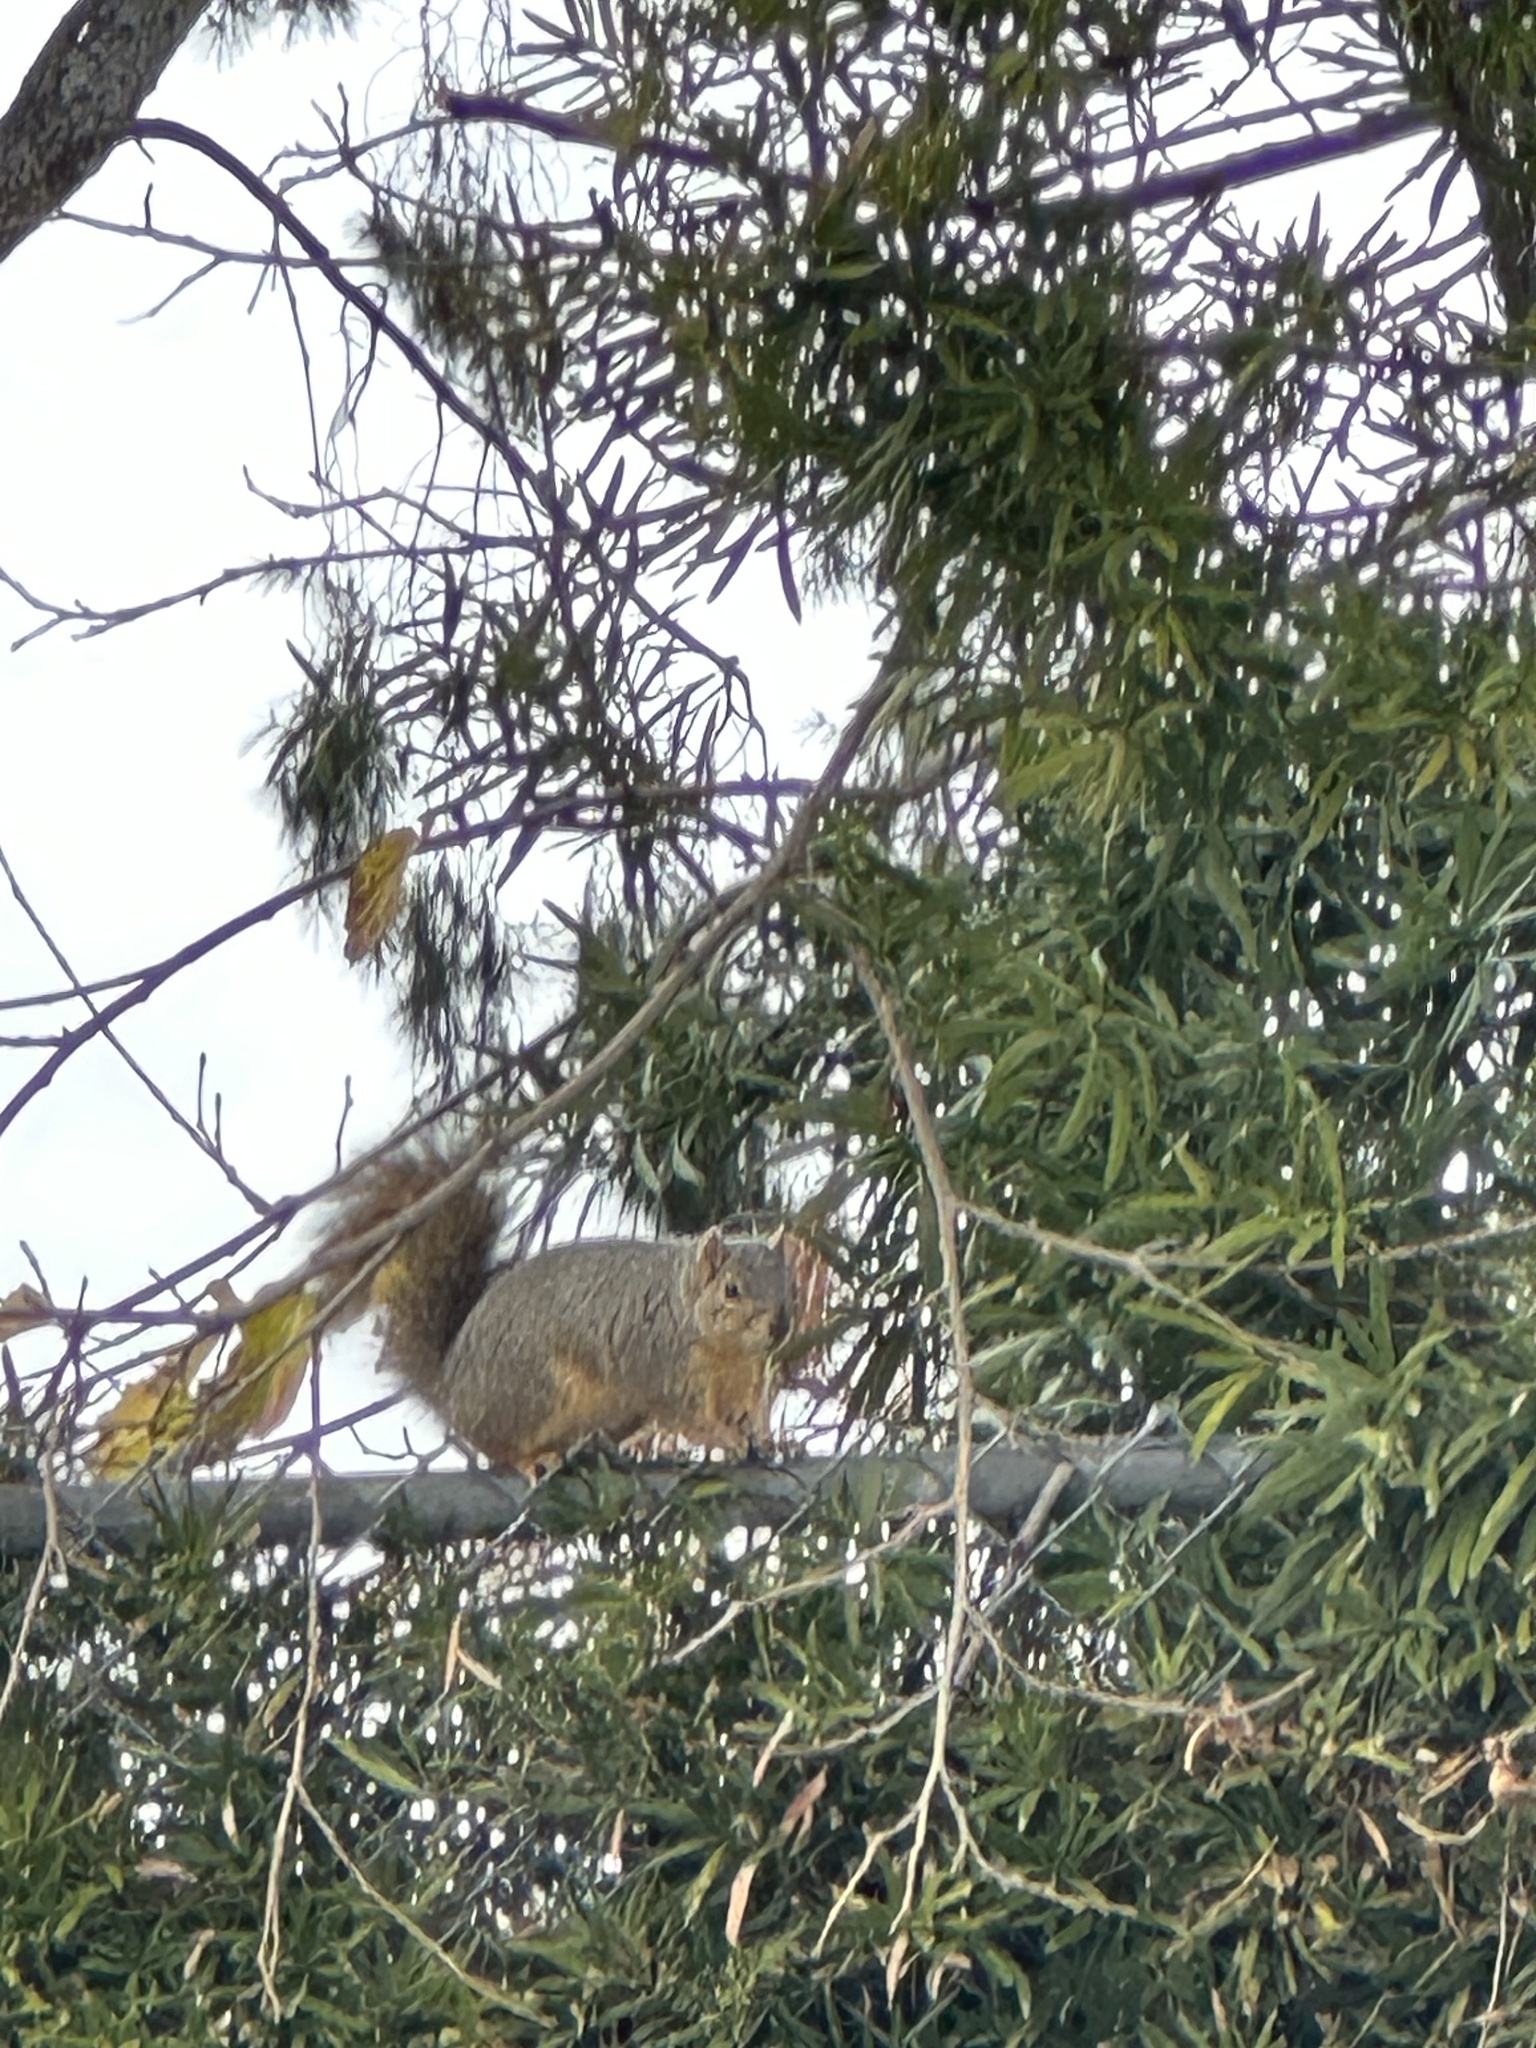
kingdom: Animalia
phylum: Chordata
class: Mammalia
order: Rodentia
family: Sciuridae
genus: Sciurus
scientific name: Sciurus niger
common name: Fox squirrel
